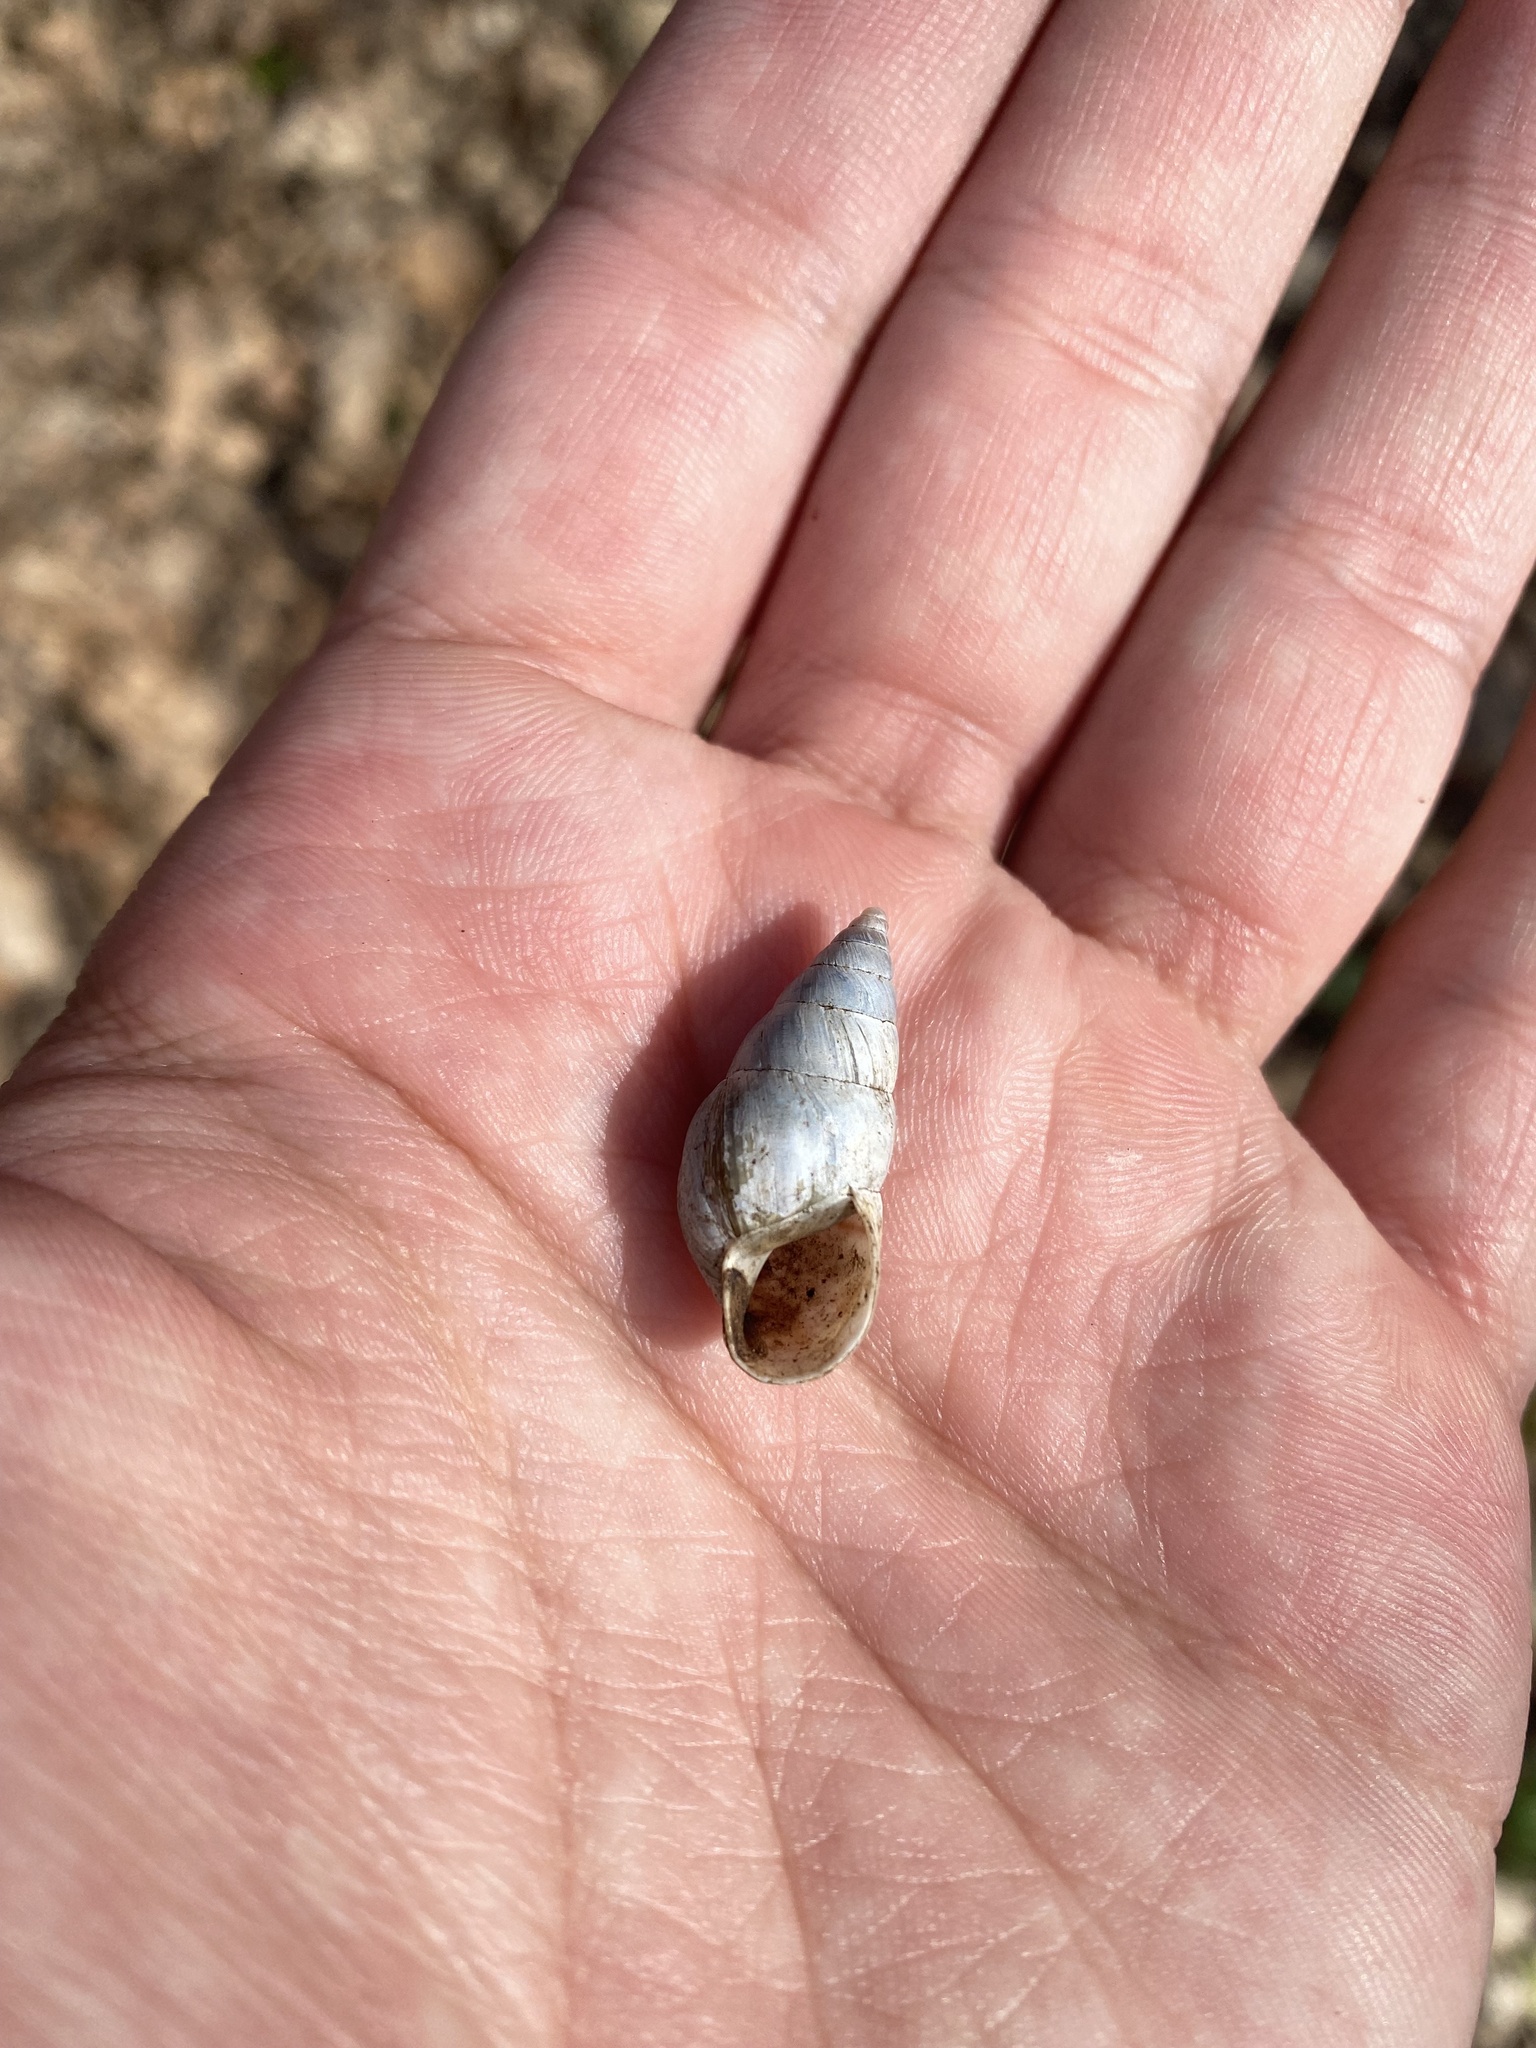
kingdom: Animalia
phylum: Mollusca
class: Gastropoda
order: Stylommatophora
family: Enidae
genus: Caucasicola
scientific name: Caucasicola raddei
